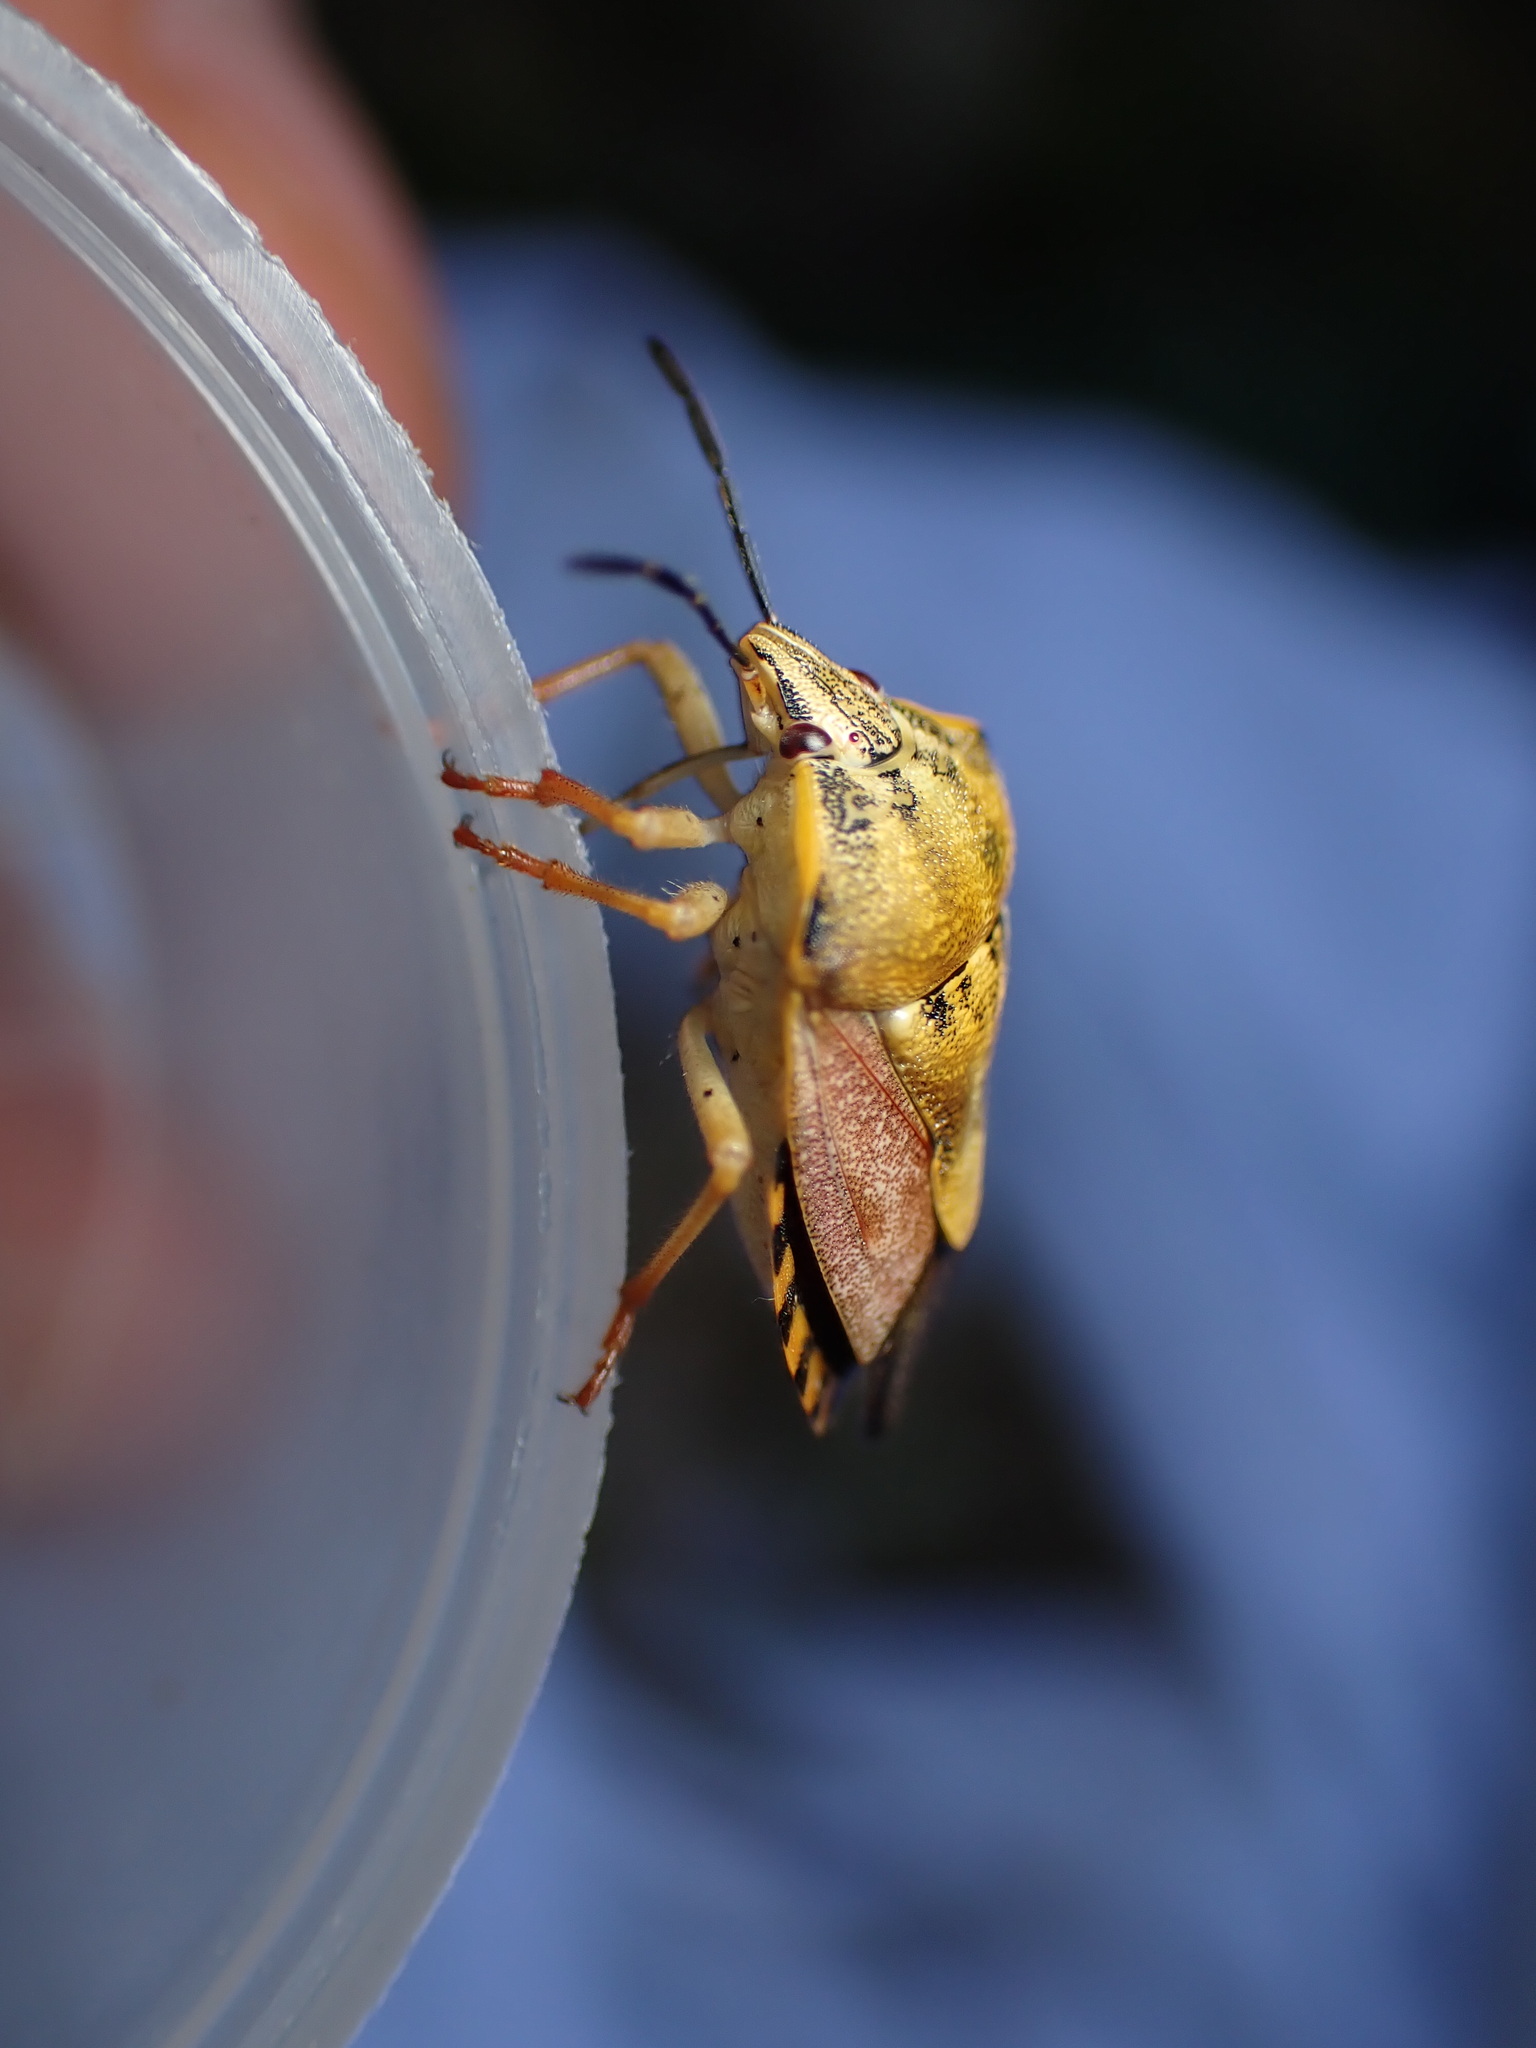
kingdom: Animalia
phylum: Arthropoda
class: Insecta
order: Hemiptera
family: Pentatomidae
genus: Carpocoris
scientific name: Carpocoris purpureipennis
